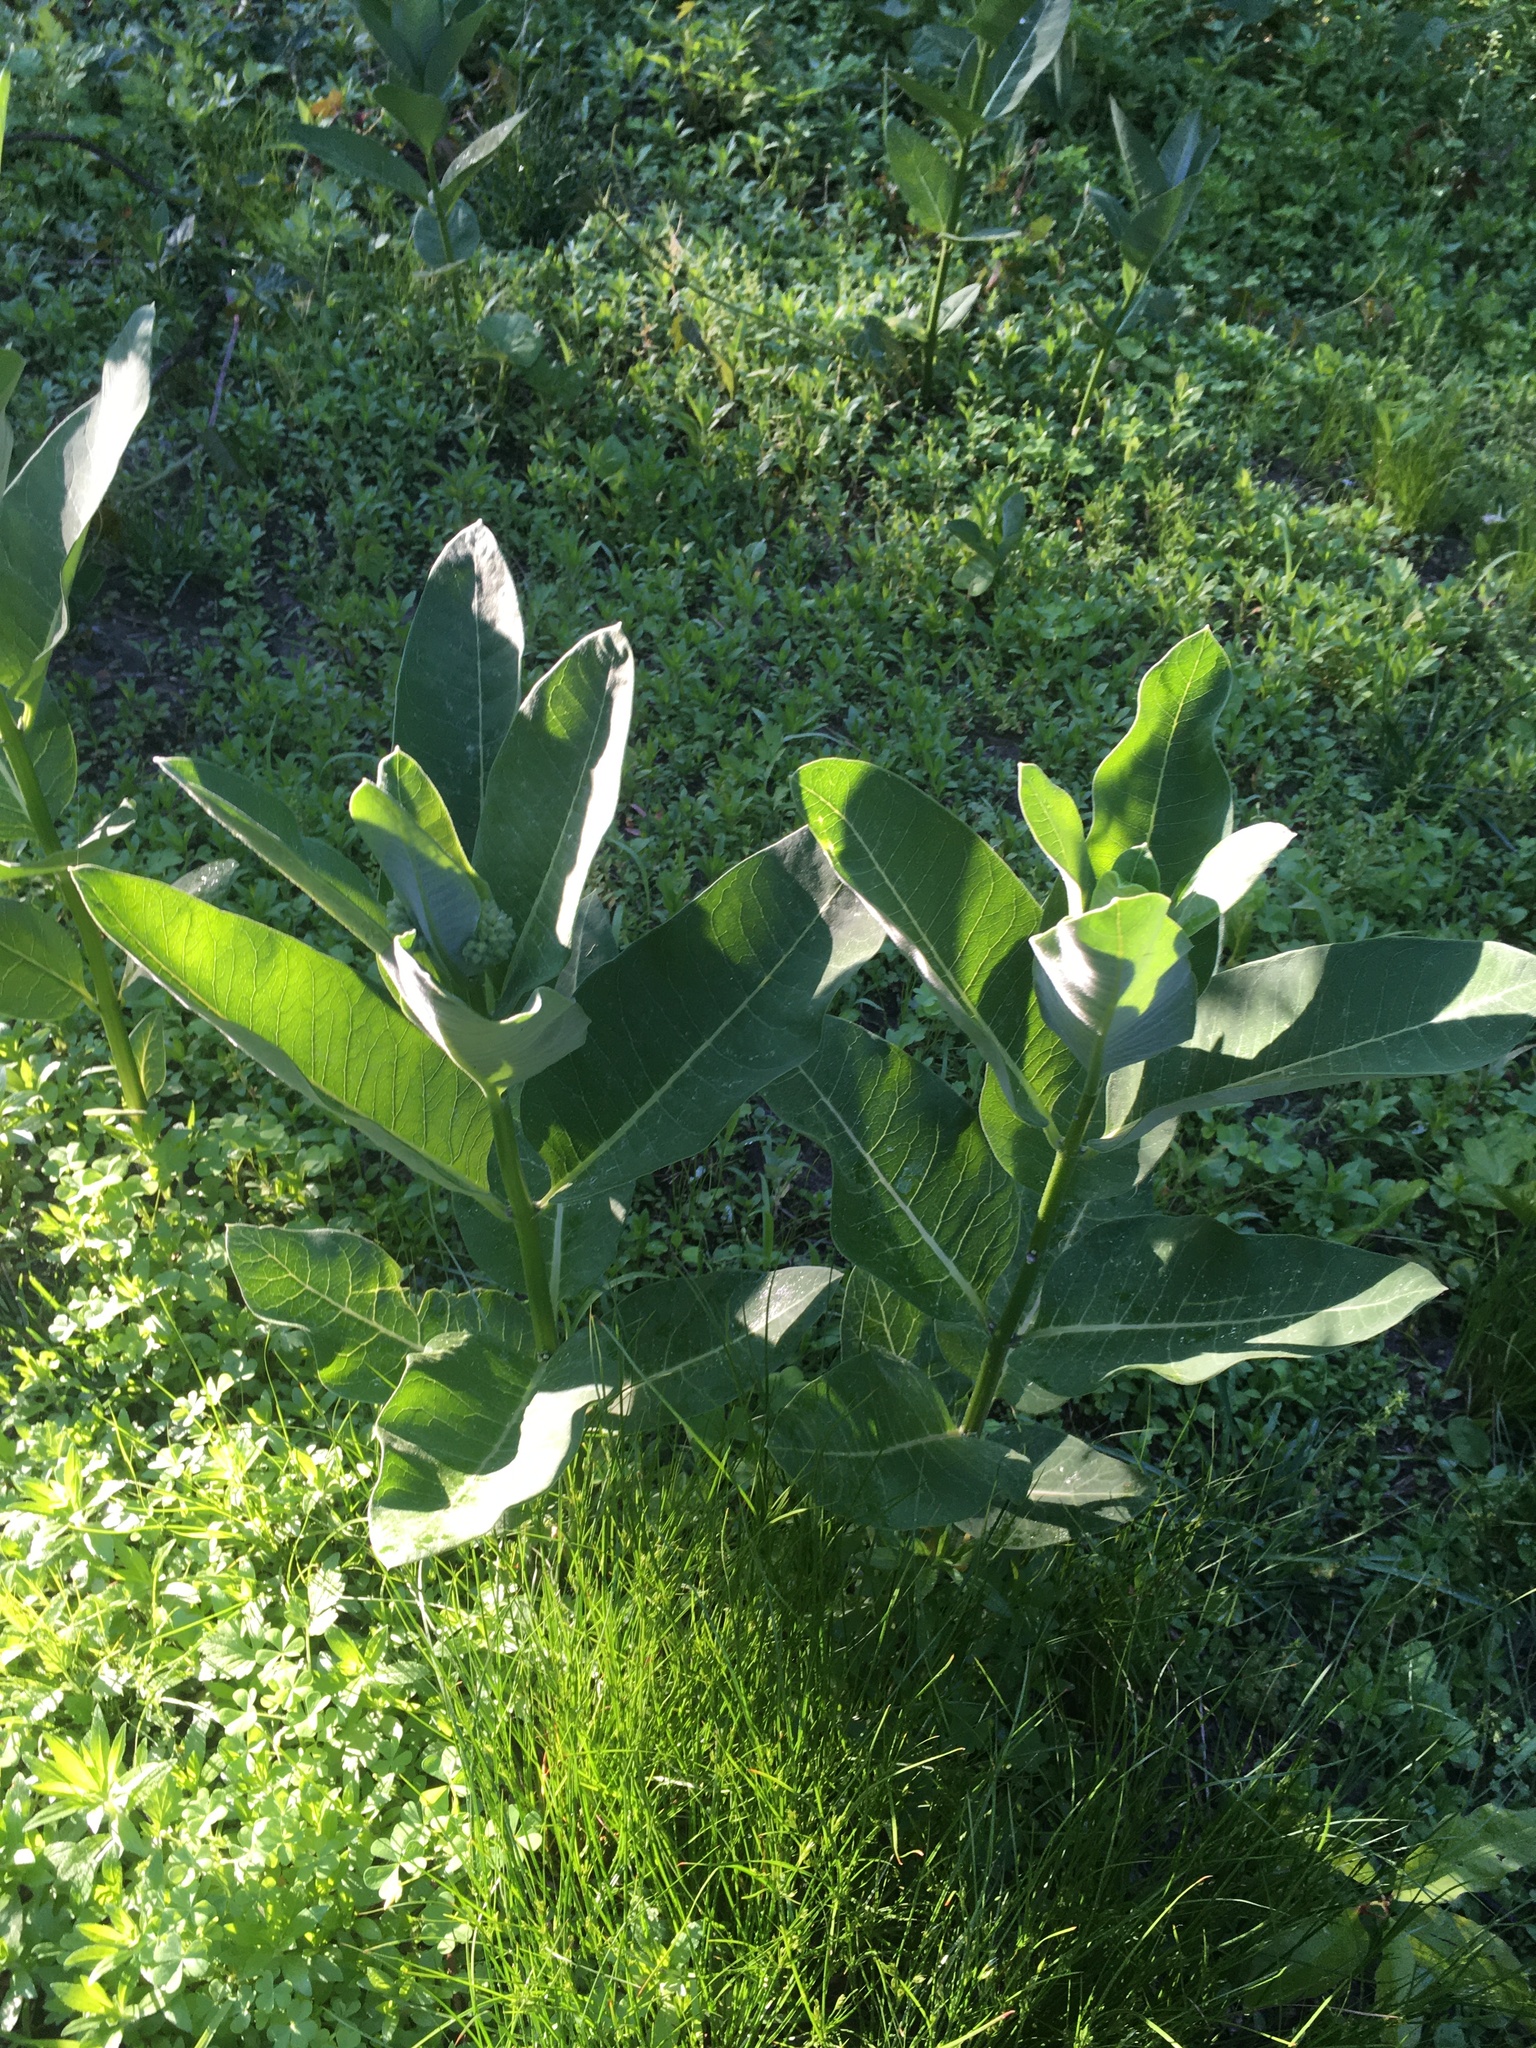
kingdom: Plantae
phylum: Tracheophyta
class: Magnoliopsida
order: Gentianales
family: Apocynaceae
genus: Asclepias
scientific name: Asclepias syriaca
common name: Common milkweed
